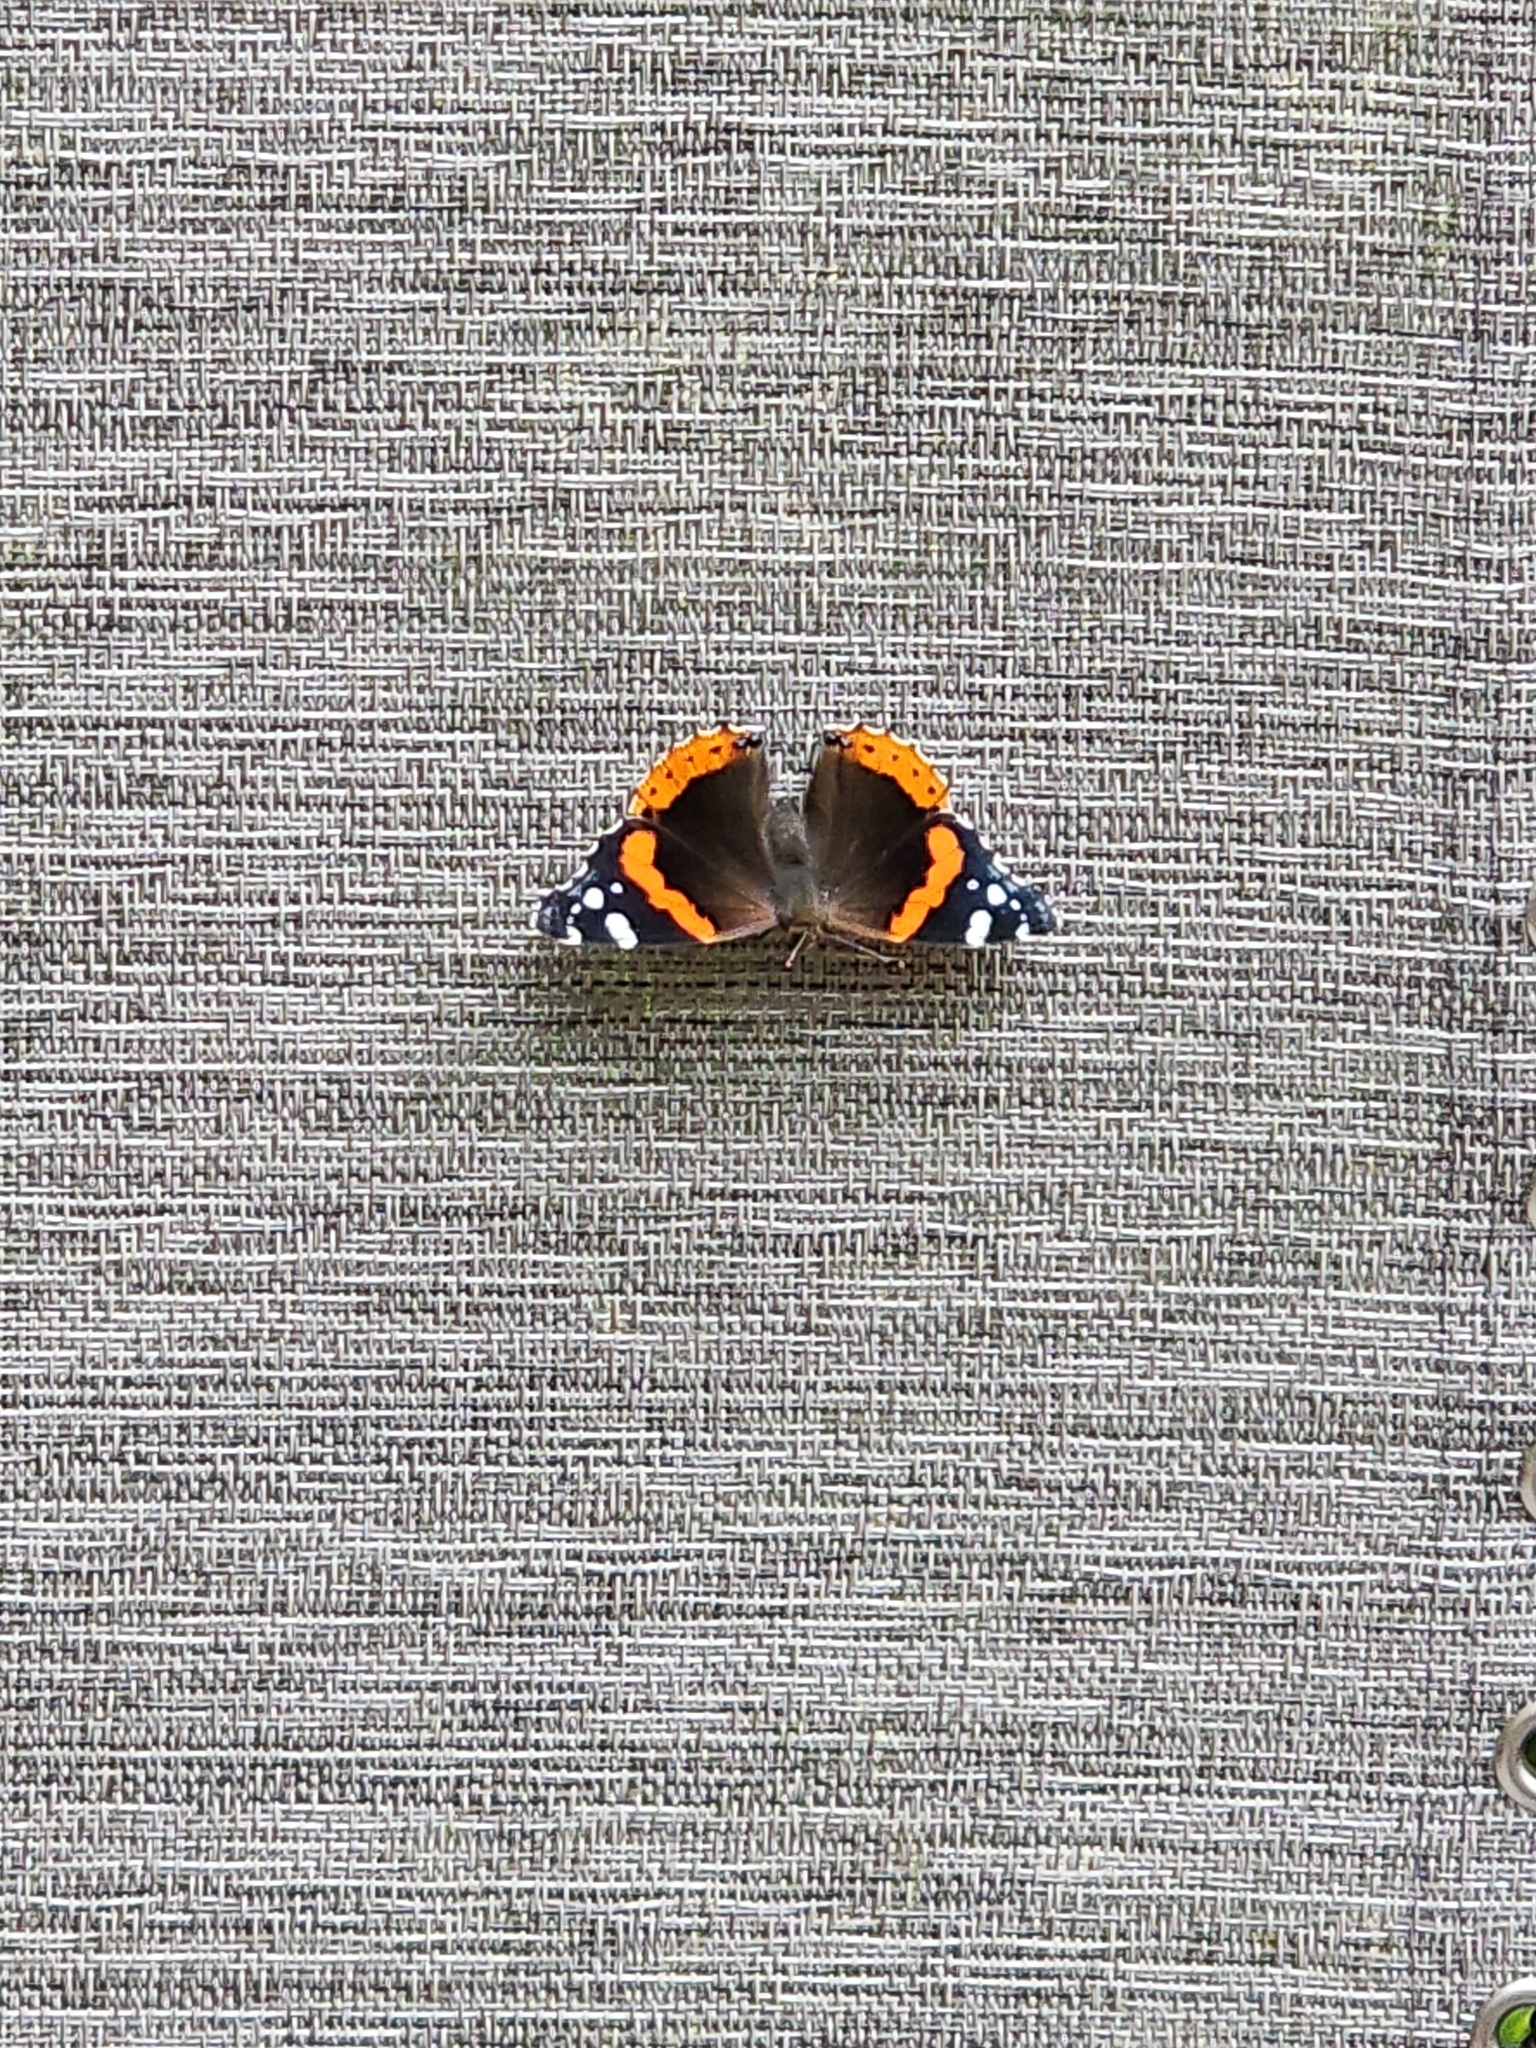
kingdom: Animalia
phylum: Arthropoda
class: Insecta
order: Lepidoptera
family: Nymphalidae
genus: Vanessa
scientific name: Vanessa atalanta
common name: Red admiral
